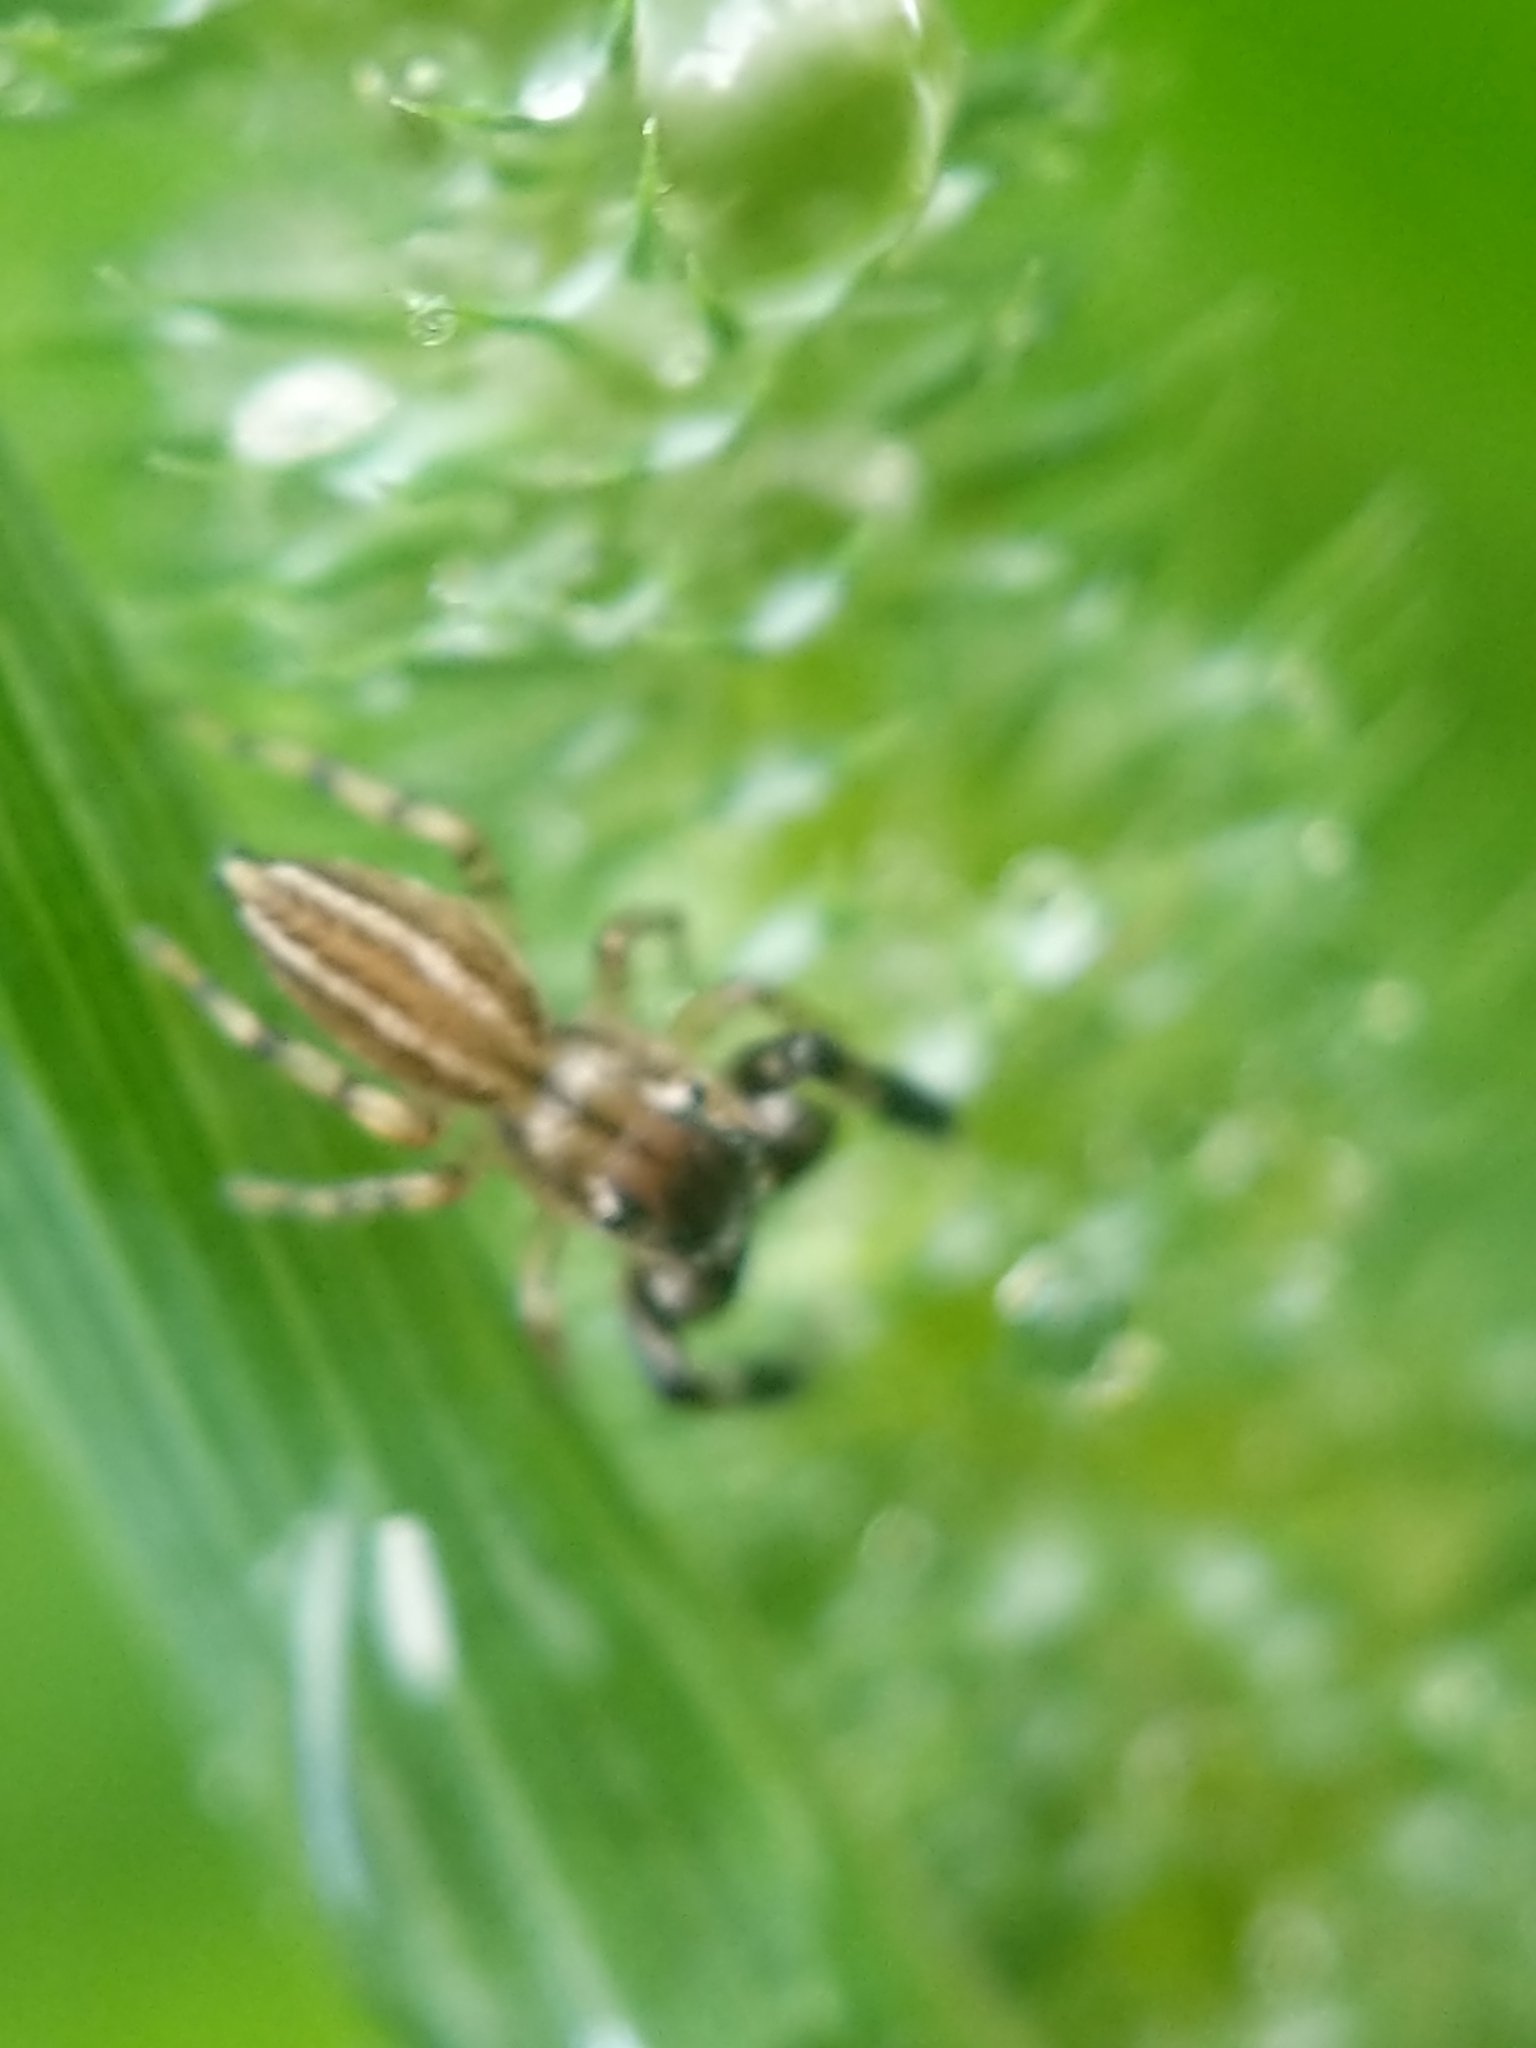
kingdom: Animalia
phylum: Arthropoda
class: Arachnida
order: Araneae
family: Salticidae
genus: Marpissa
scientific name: Marpissa lineata
